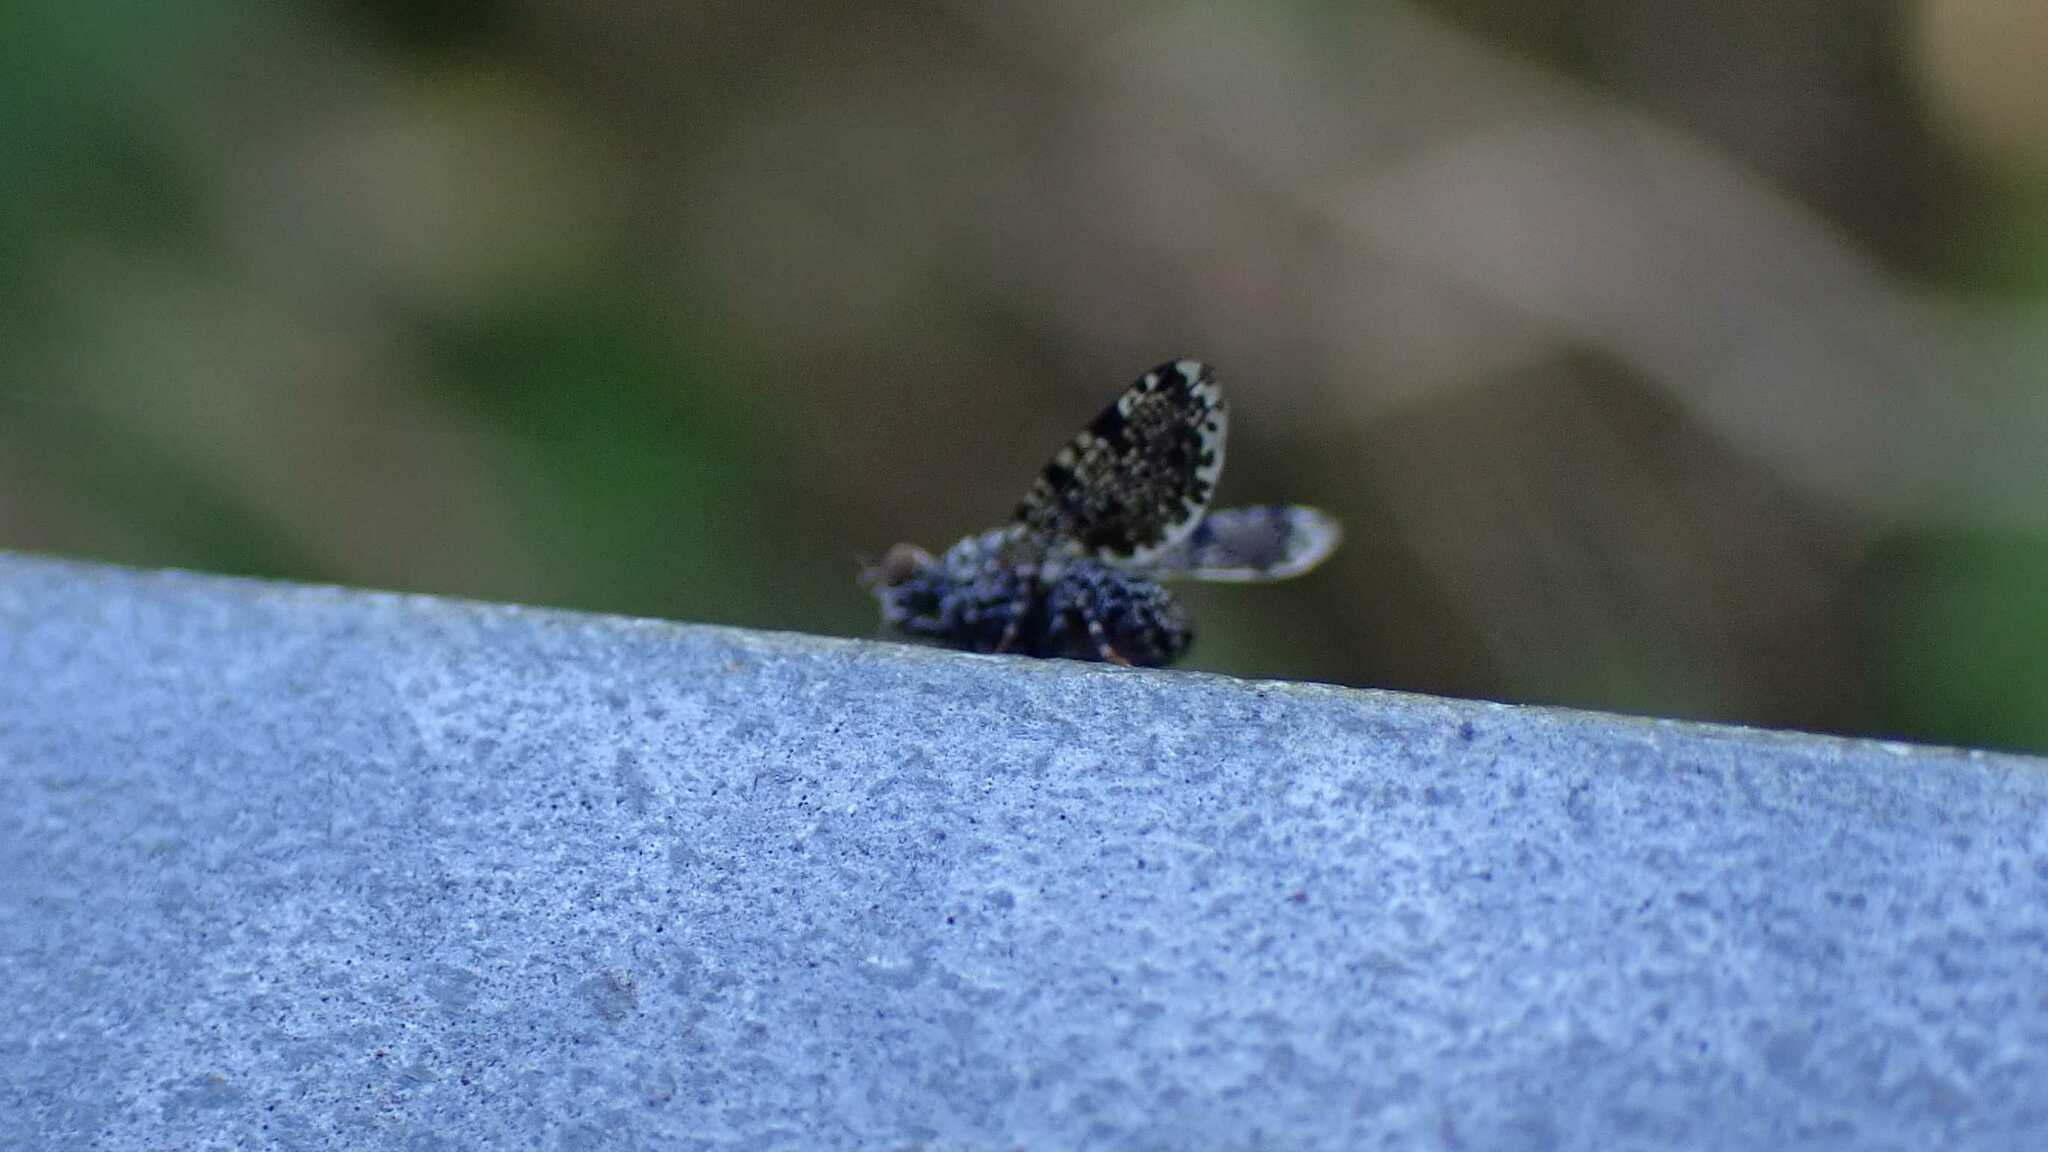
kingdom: Animalia
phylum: Arthropoda
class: Insecta
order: Diptera
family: Ulidiidae
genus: Callopistromyia
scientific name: Callopistromyia annulipes
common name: Peacock fly
